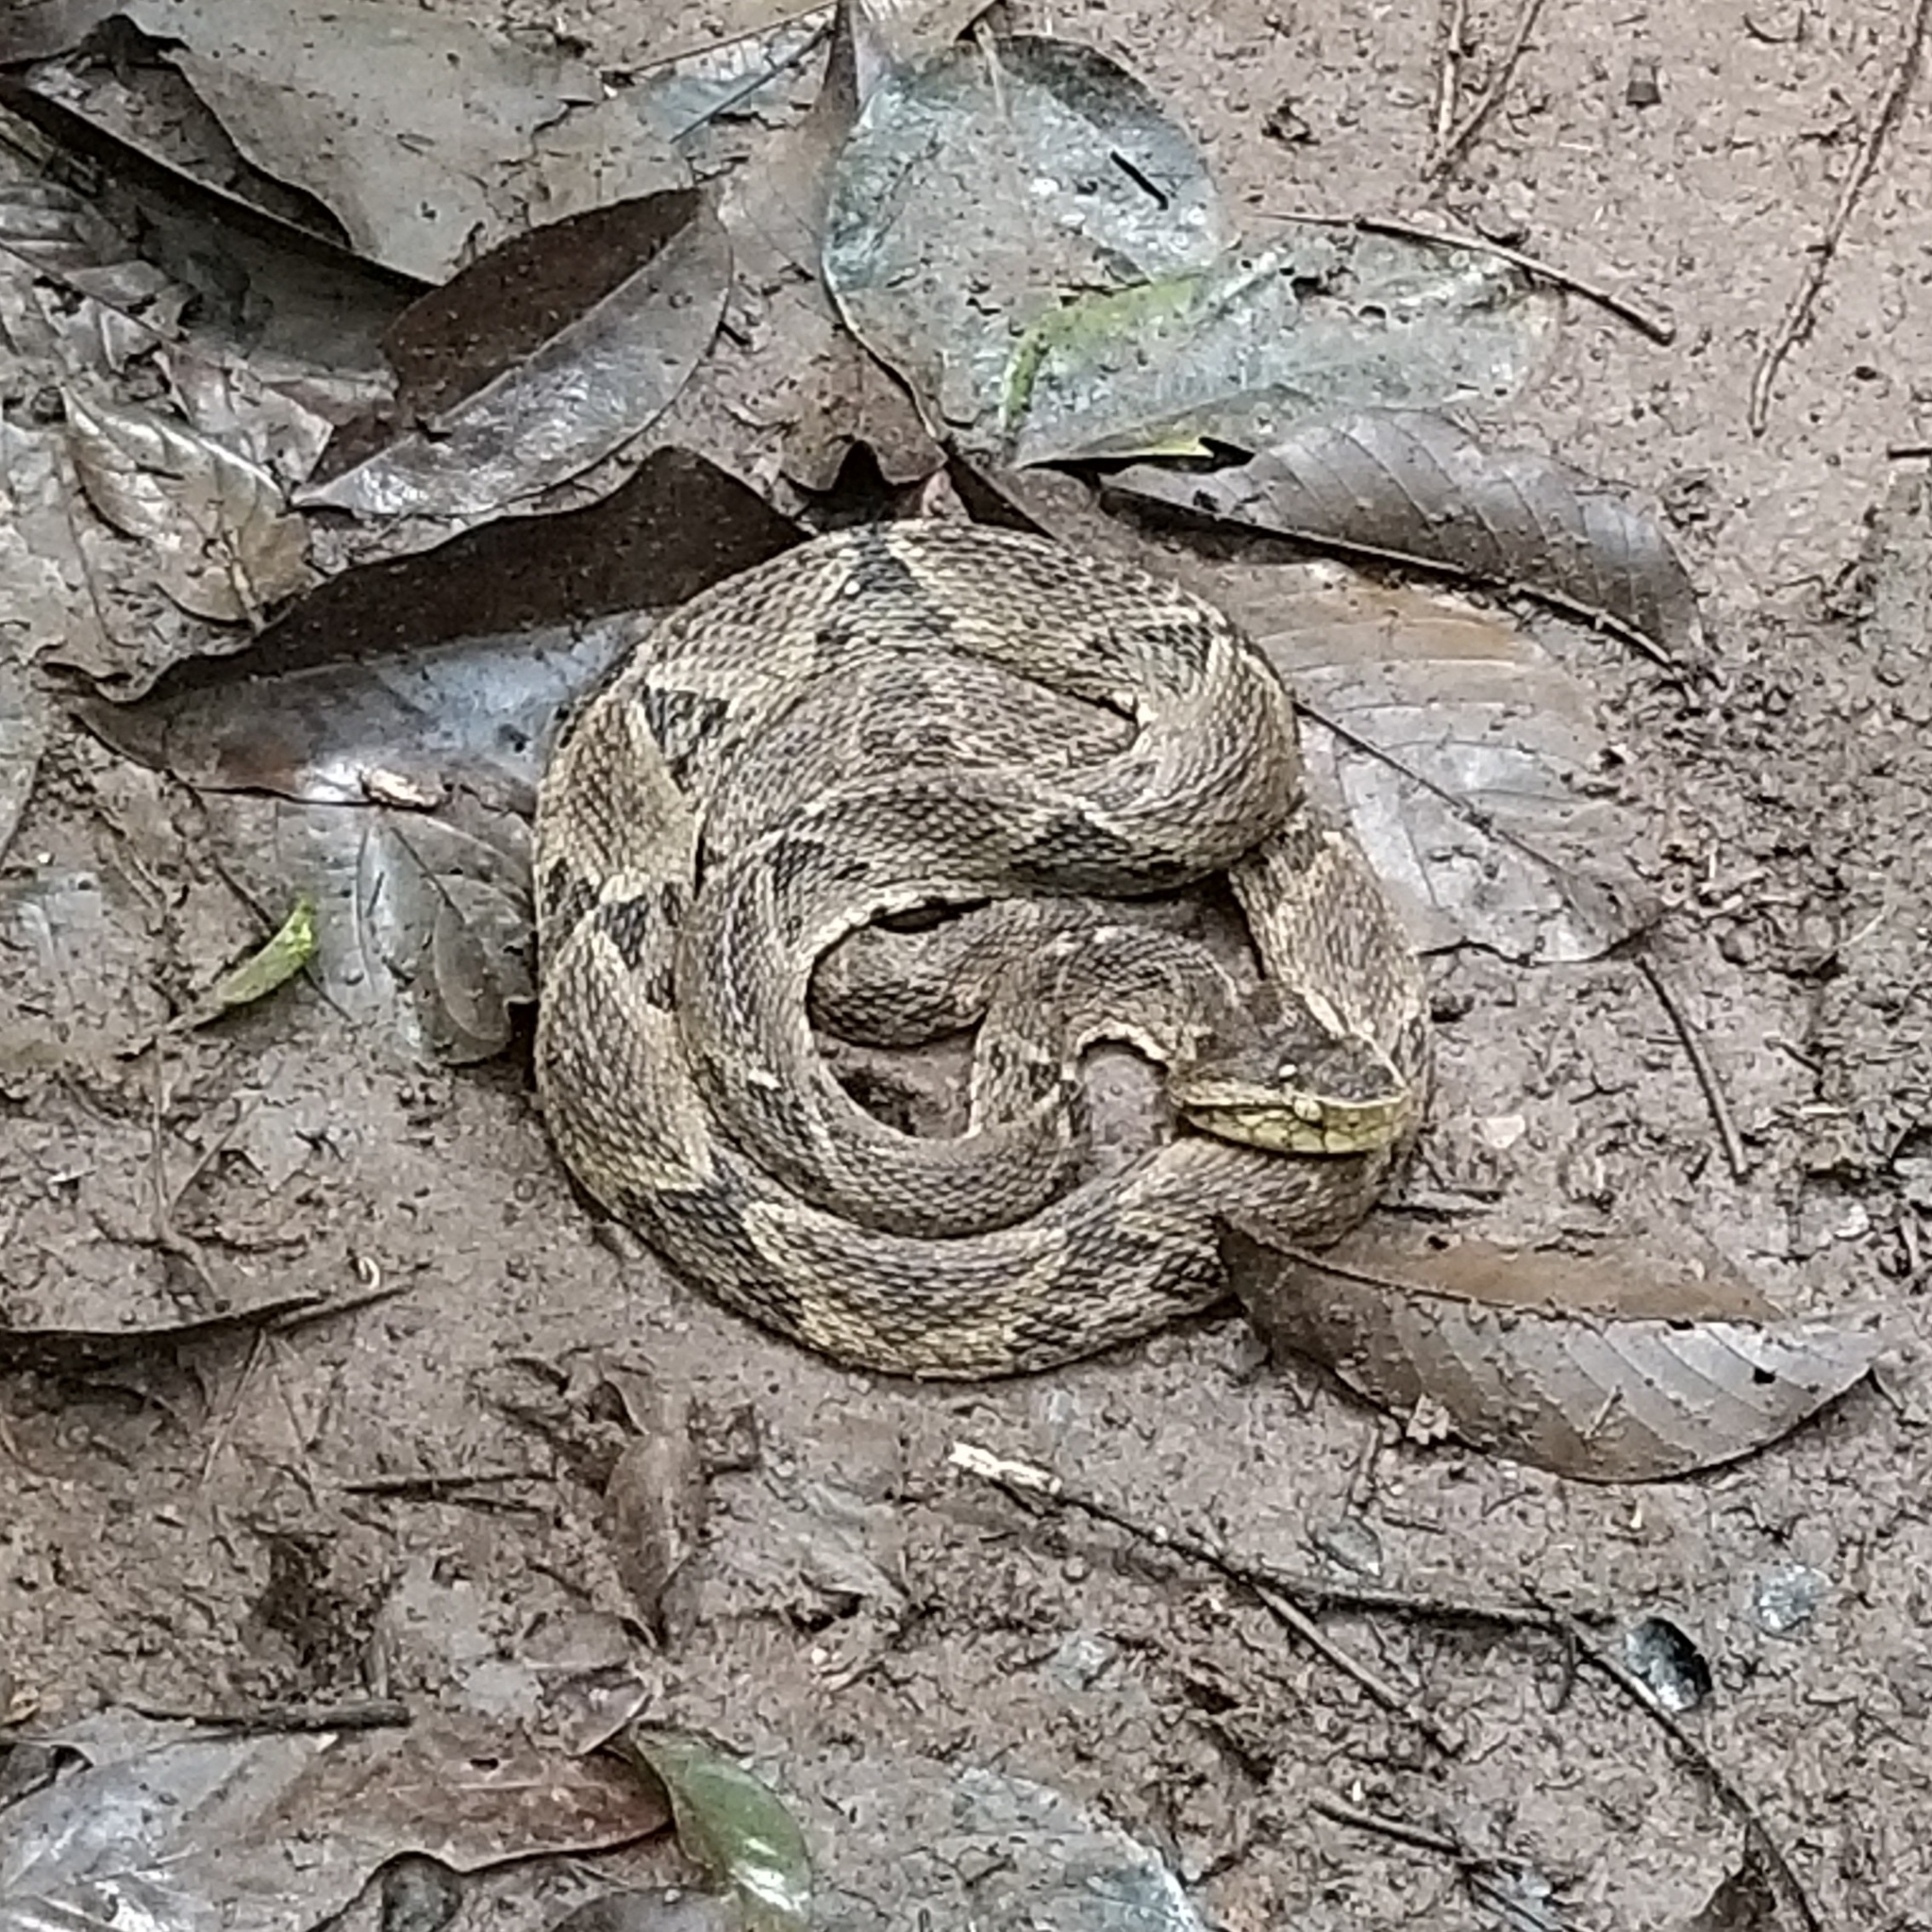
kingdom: Animalia
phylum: Chordata
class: Squamata
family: Viperidae
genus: Bothrops
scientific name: Bothrops asper
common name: Terciopelo
